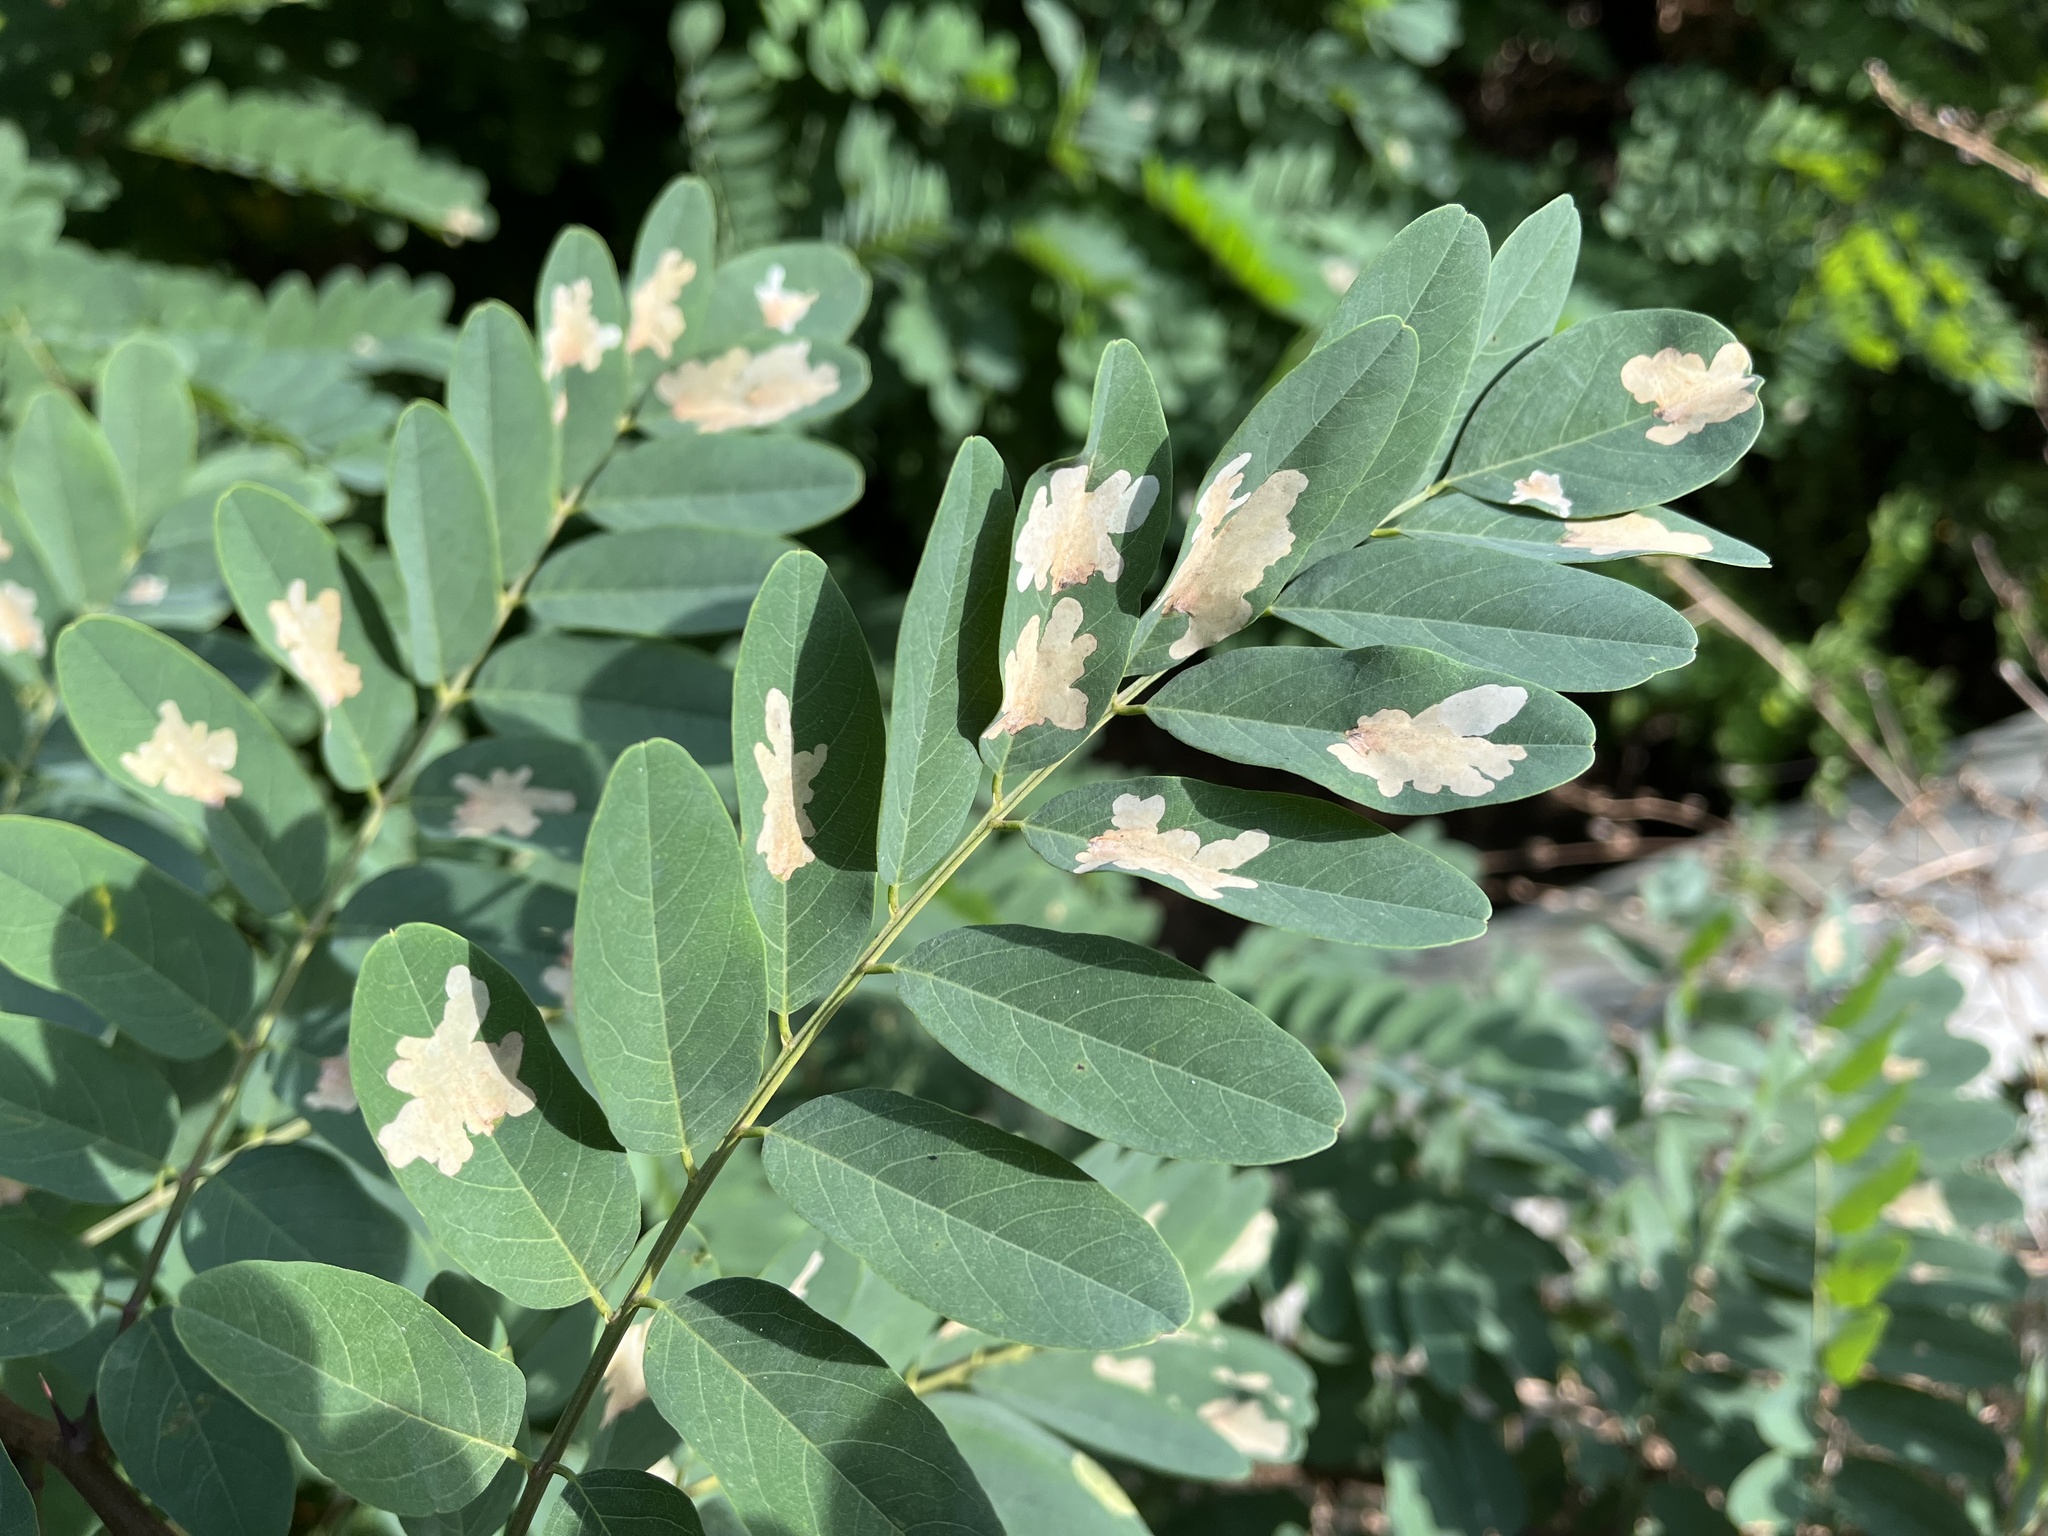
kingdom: Animalia
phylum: Arthropoda
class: Insecta
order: Lepidoptera
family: Gracillariidae
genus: Parectopa
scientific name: Parectopa robiniella
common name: Locust digitate leafminer
